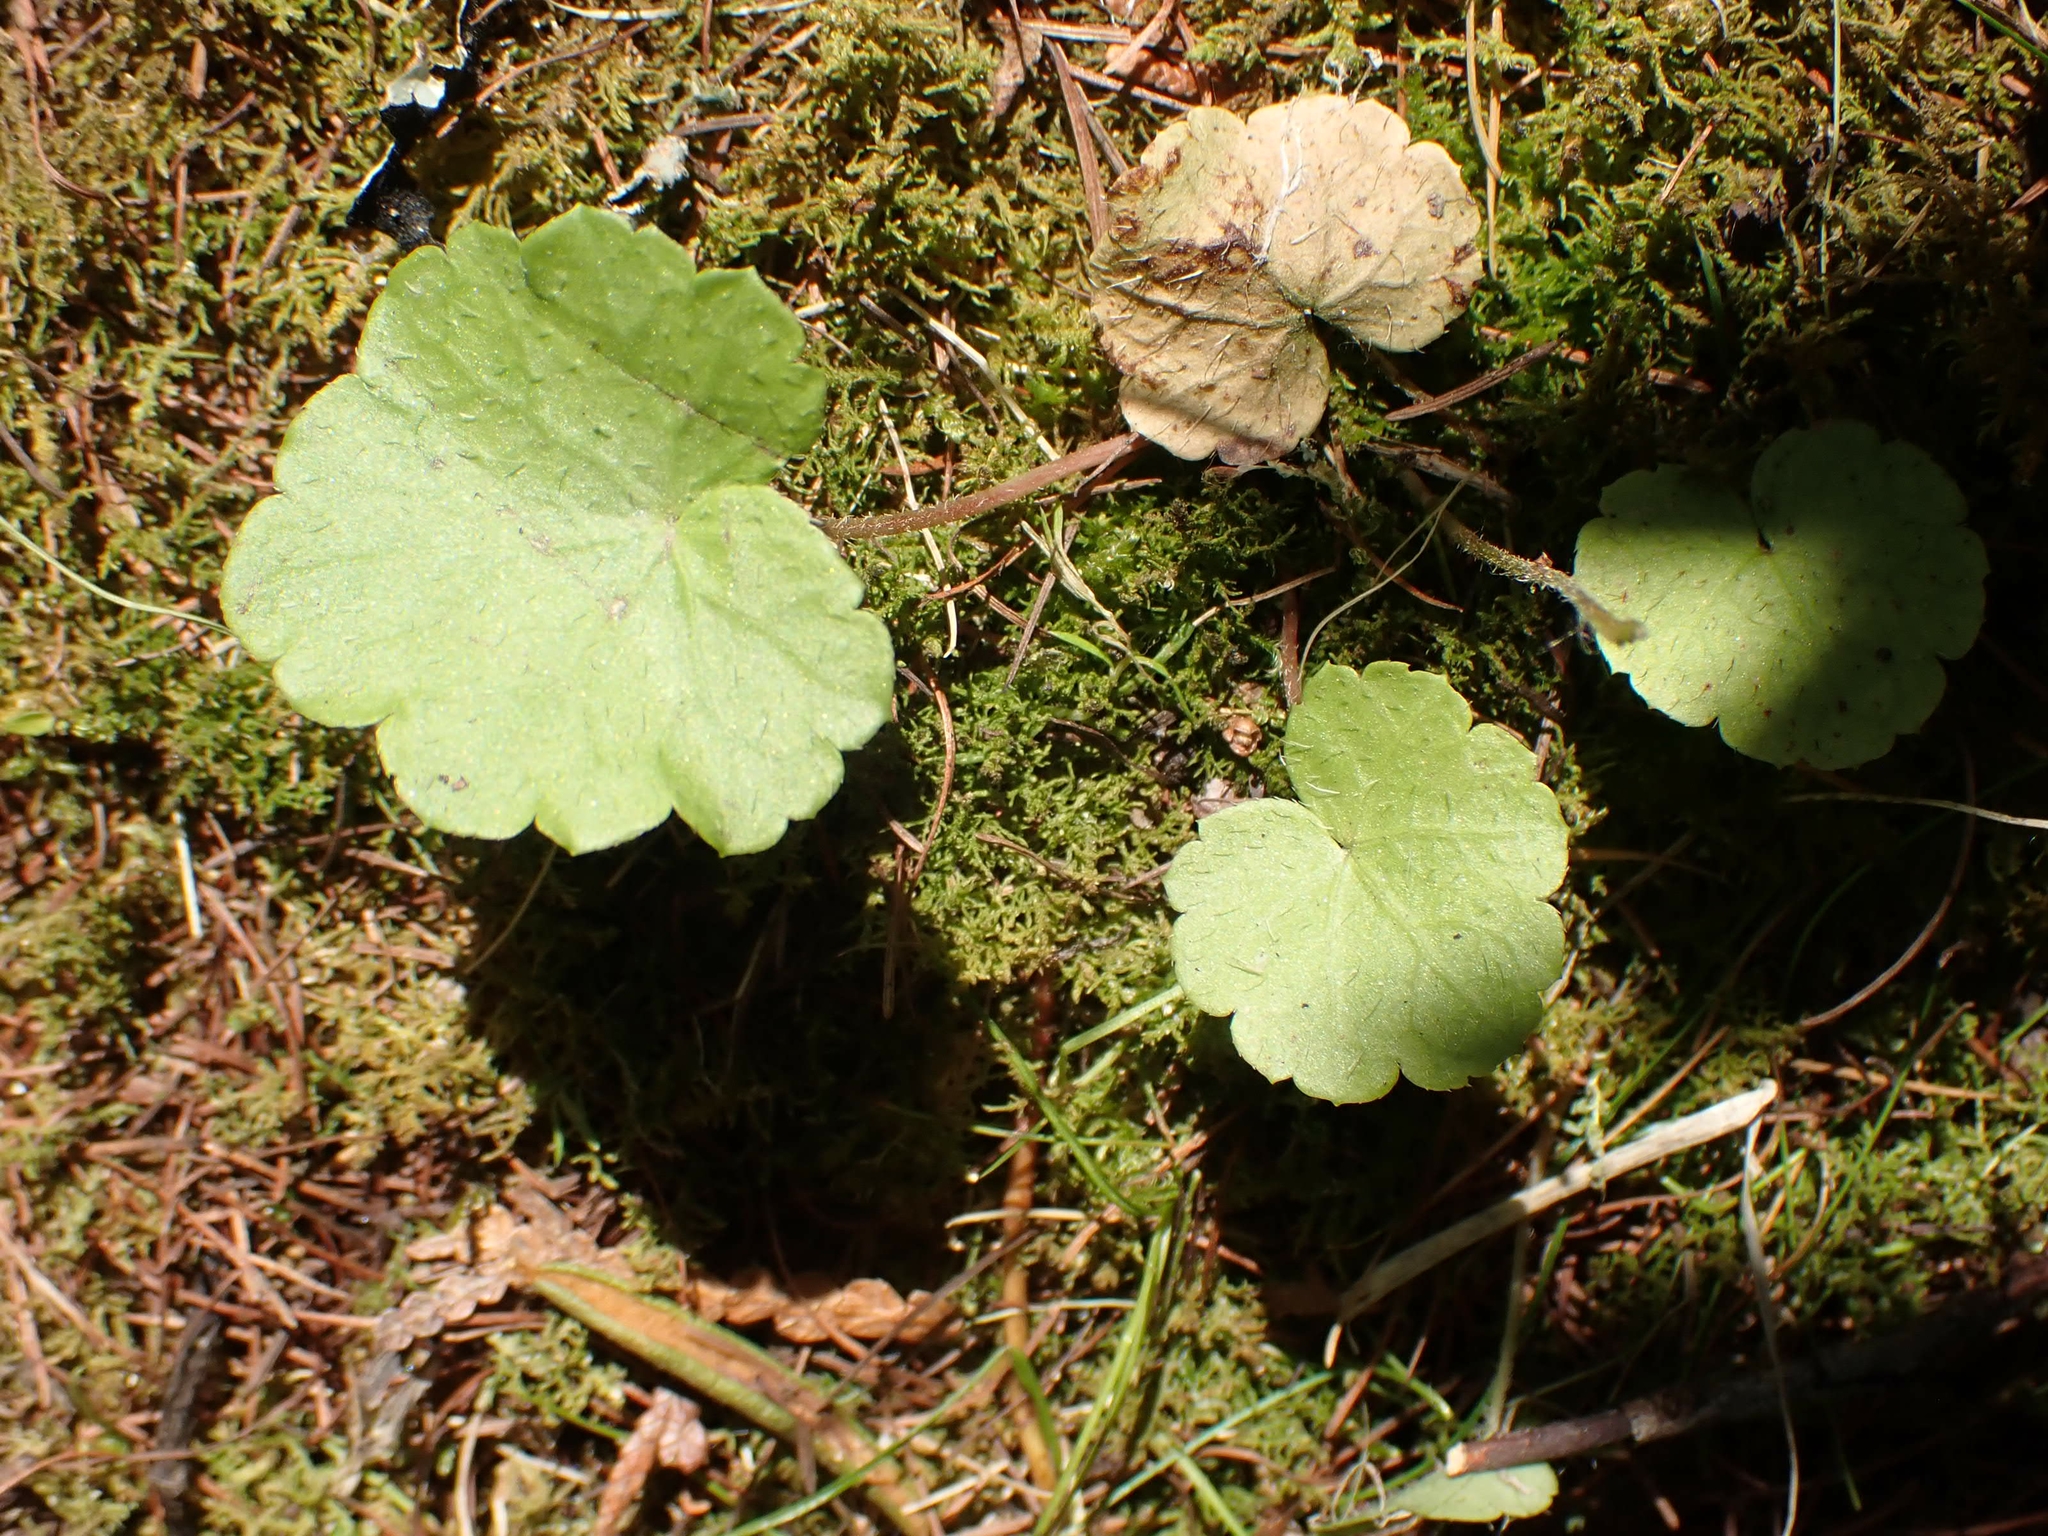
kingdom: Plantae
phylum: Tracheophyta
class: Magnoliopsida
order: Saxifragales
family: Saxifragaceae
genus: Mitella
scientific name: Mitella nuda
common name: Bare-stemmed bishop's-cap
